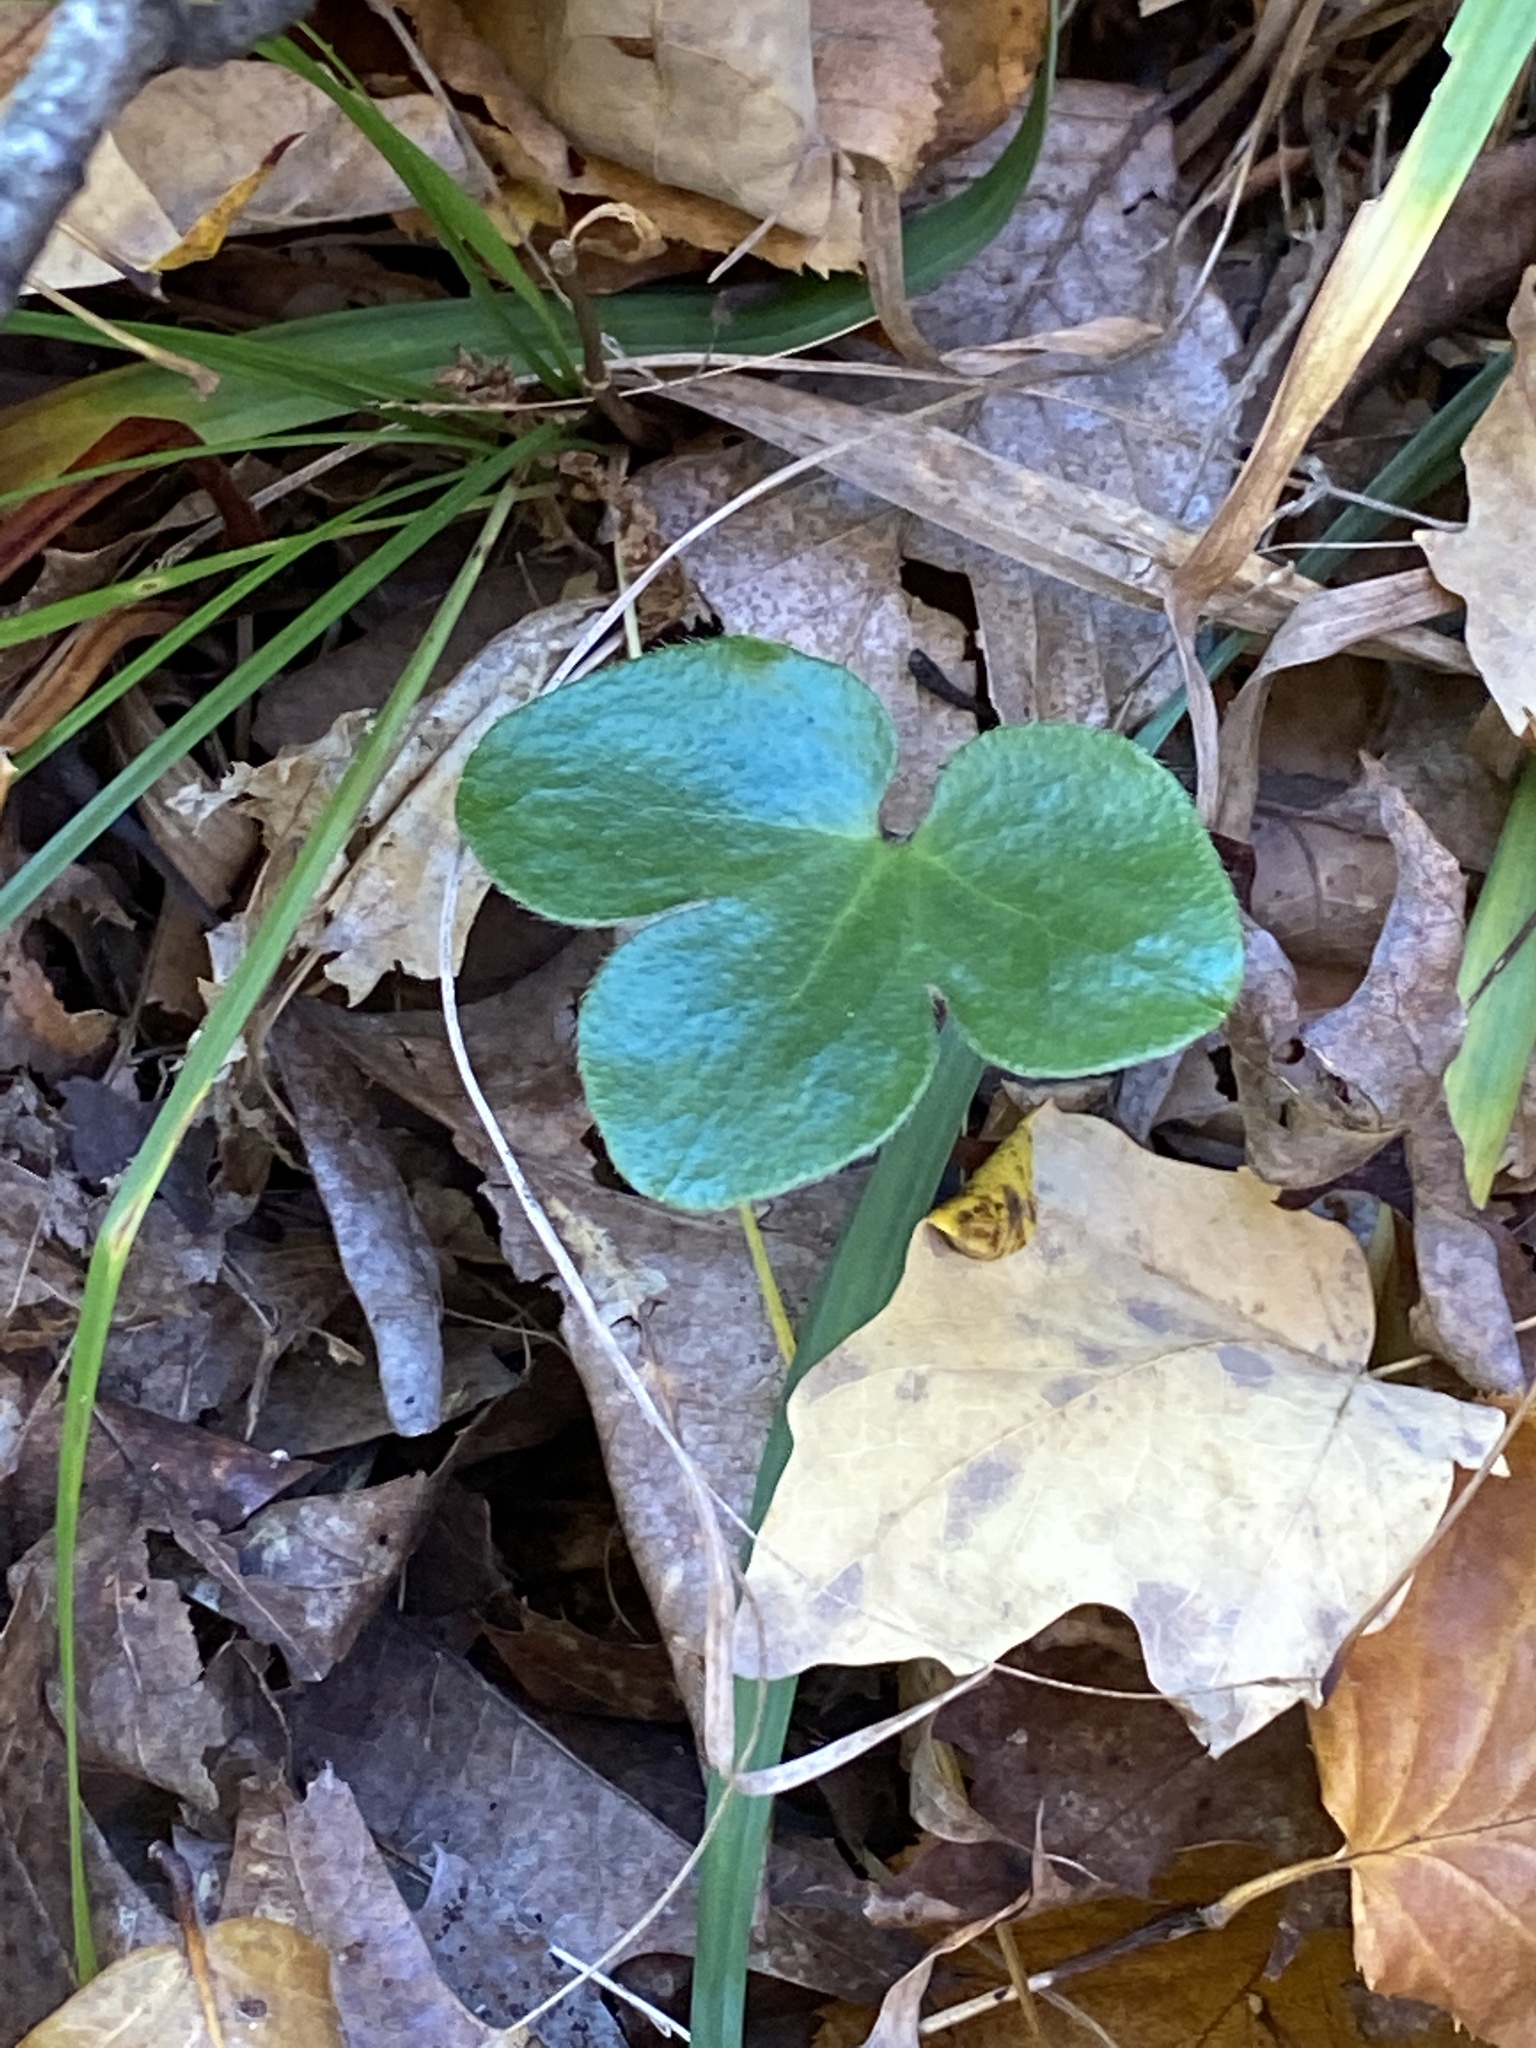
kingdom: Plantae
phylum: Tracheophyta
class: Magnoliopsida
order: Ranunculales
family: Ranunculaceae
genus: Hepatica
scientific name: Hepatica americana
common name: American hepatica
